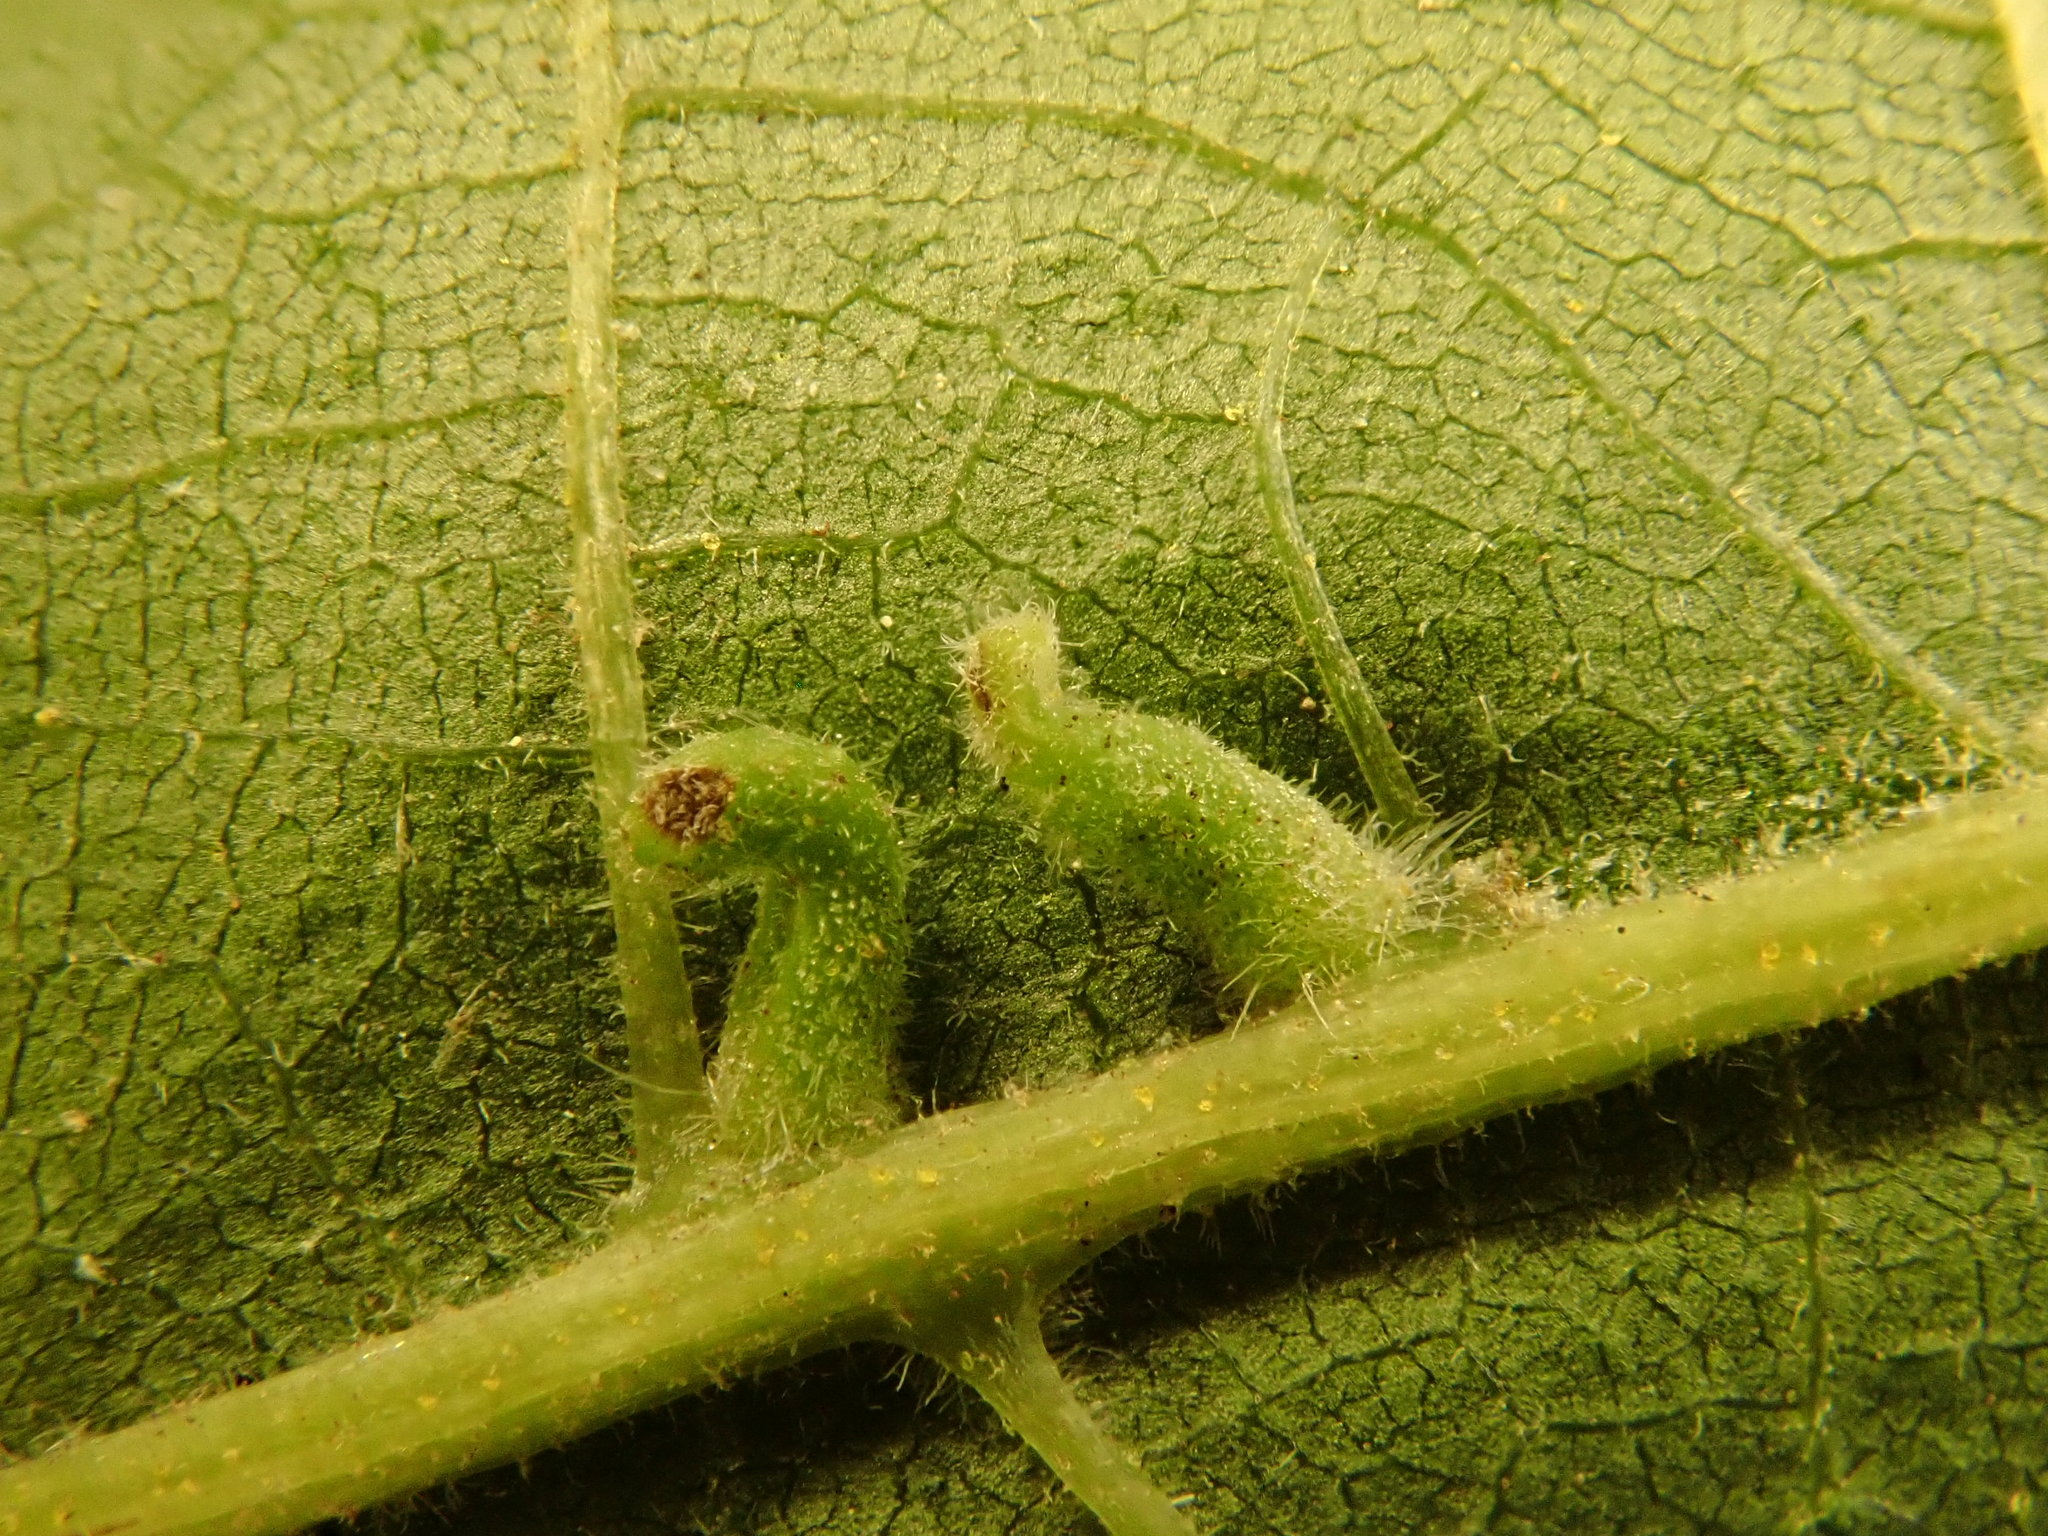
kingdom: Animalia
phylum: Arthropoda
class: Insecta
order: Diptera
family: Cecidomyiidae
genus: Caryomyia
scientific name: Caryomyia ansericollum
